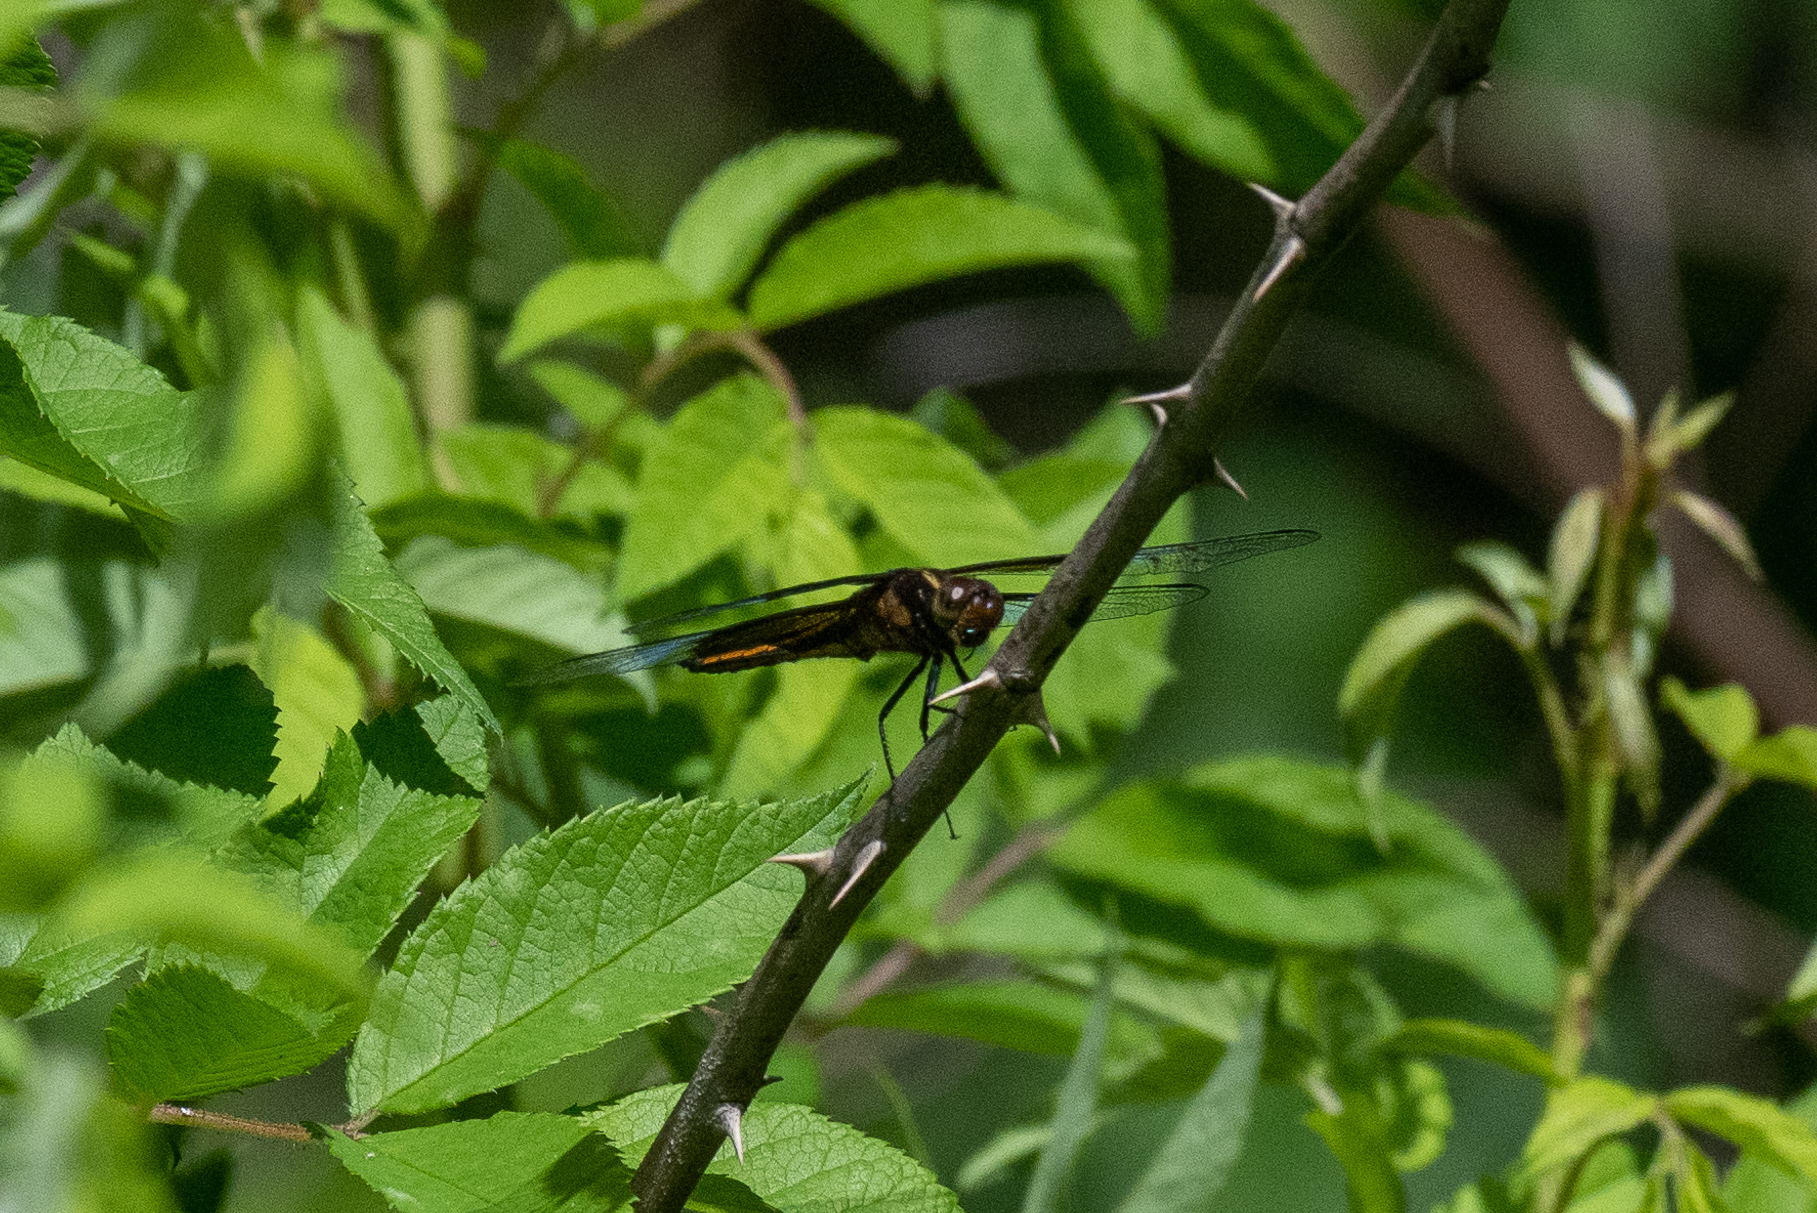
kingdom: Animalia
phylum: Arthropoda
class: Insecta
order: Odonata
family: Libellulidae
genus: Libellula
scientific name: Libellula luctuosa
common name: Widow skimmer
